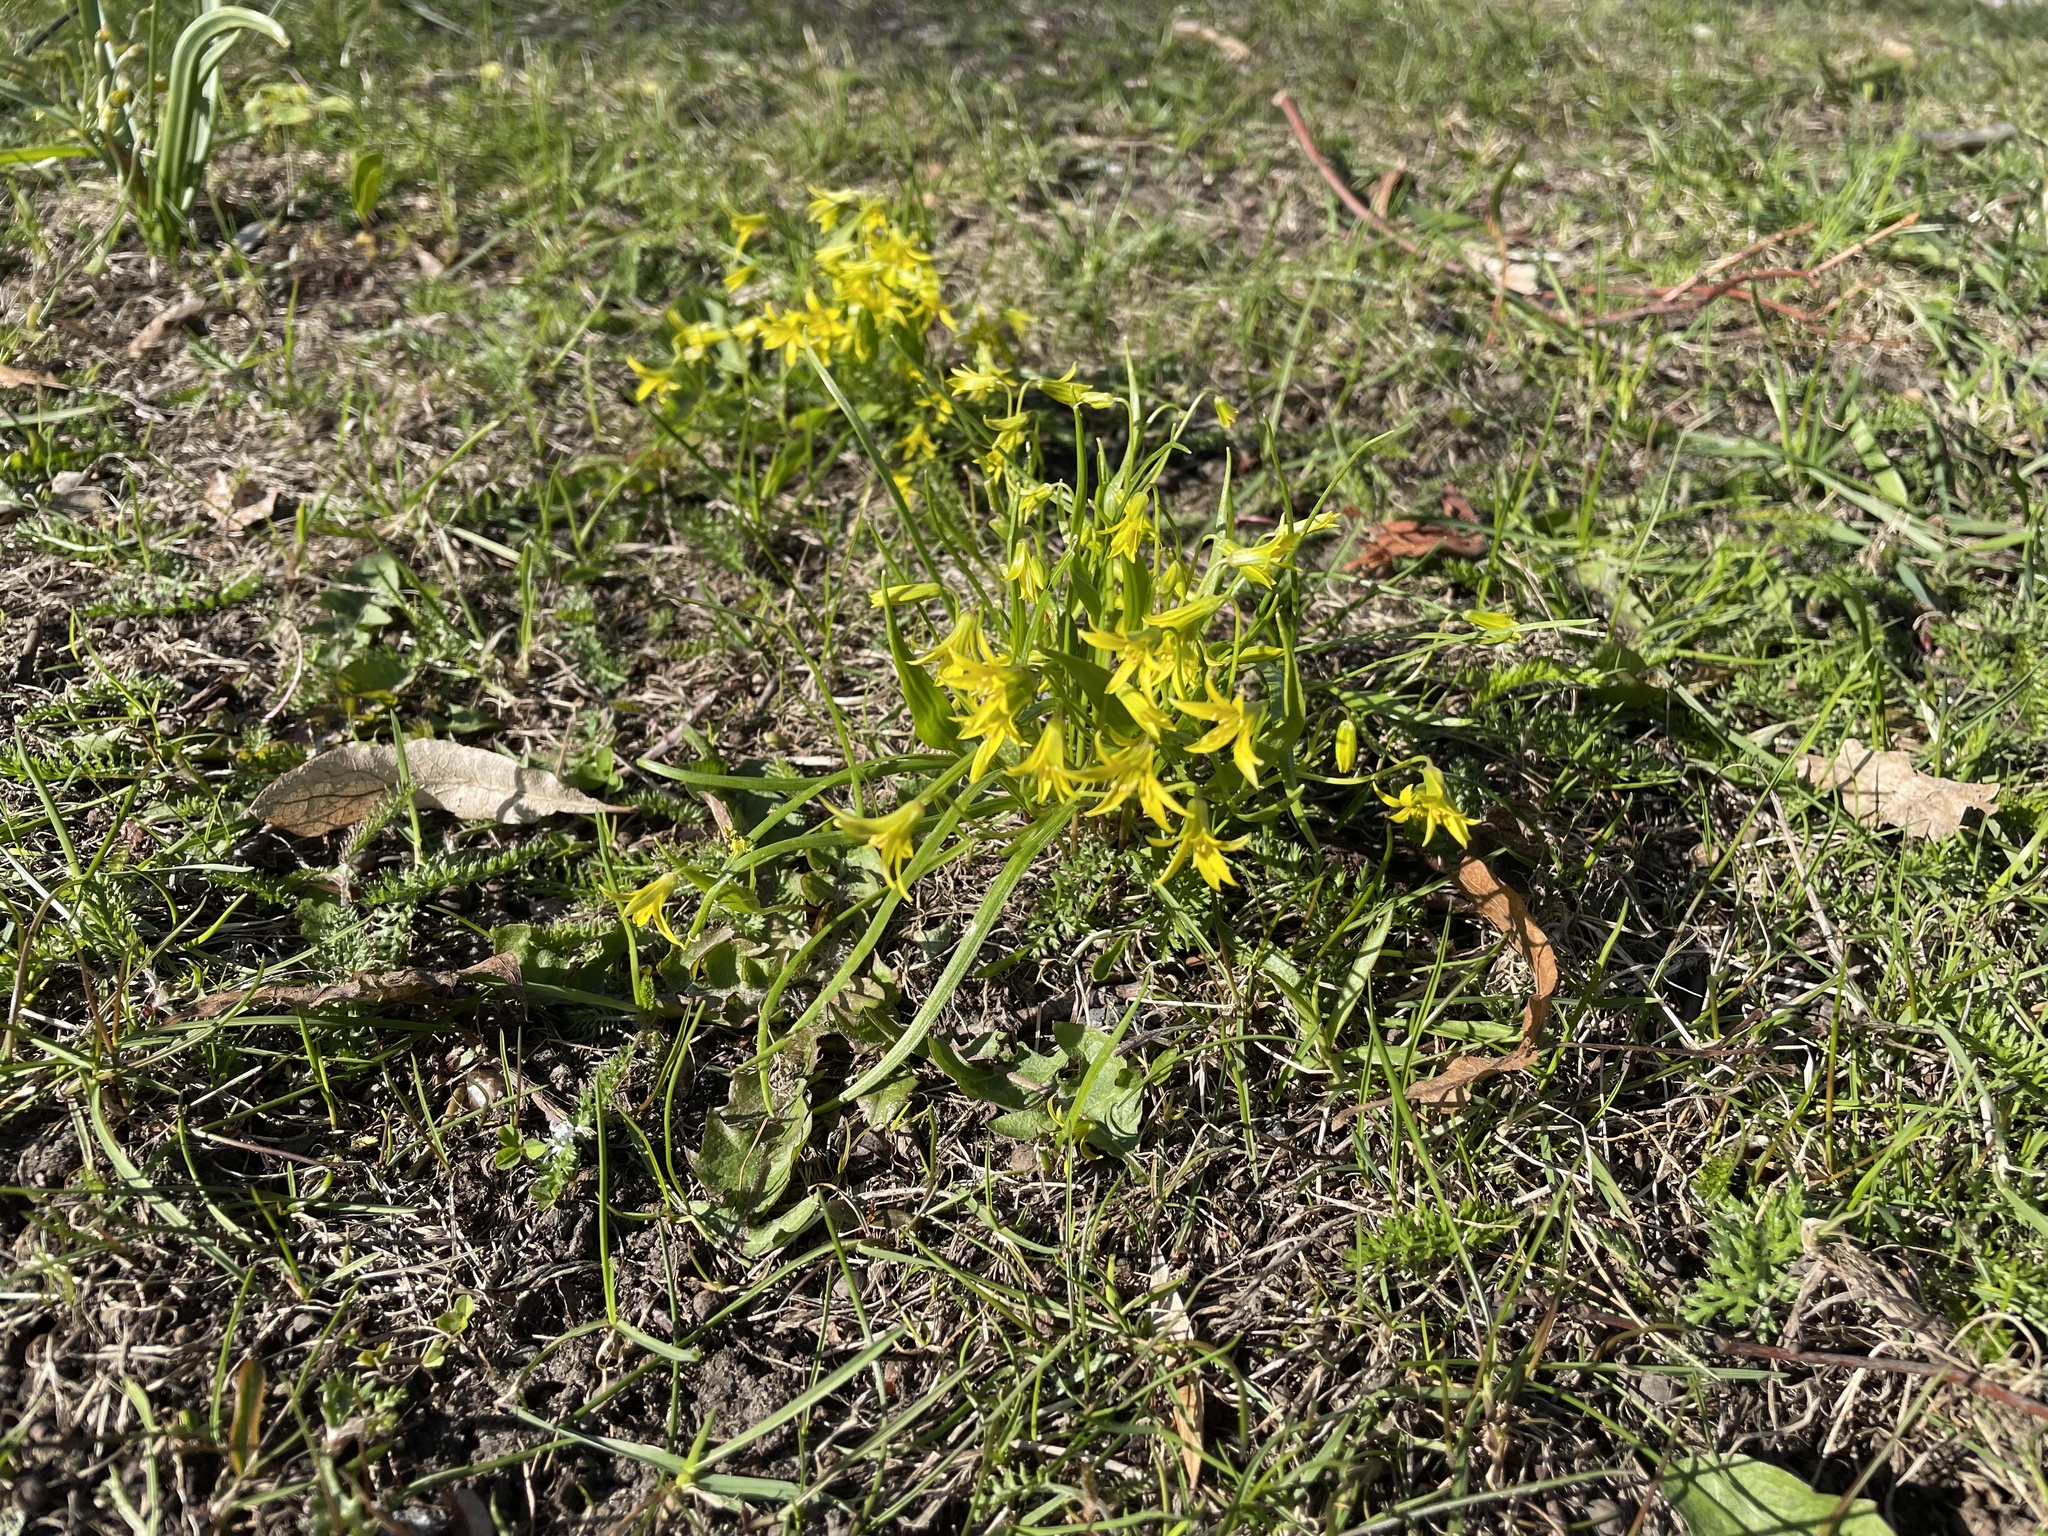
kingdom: Plantae
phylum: Tracheophyta
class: Liliopsida
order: Liliales
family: Liliaceae
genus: Gagea
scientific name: Gagea minima
